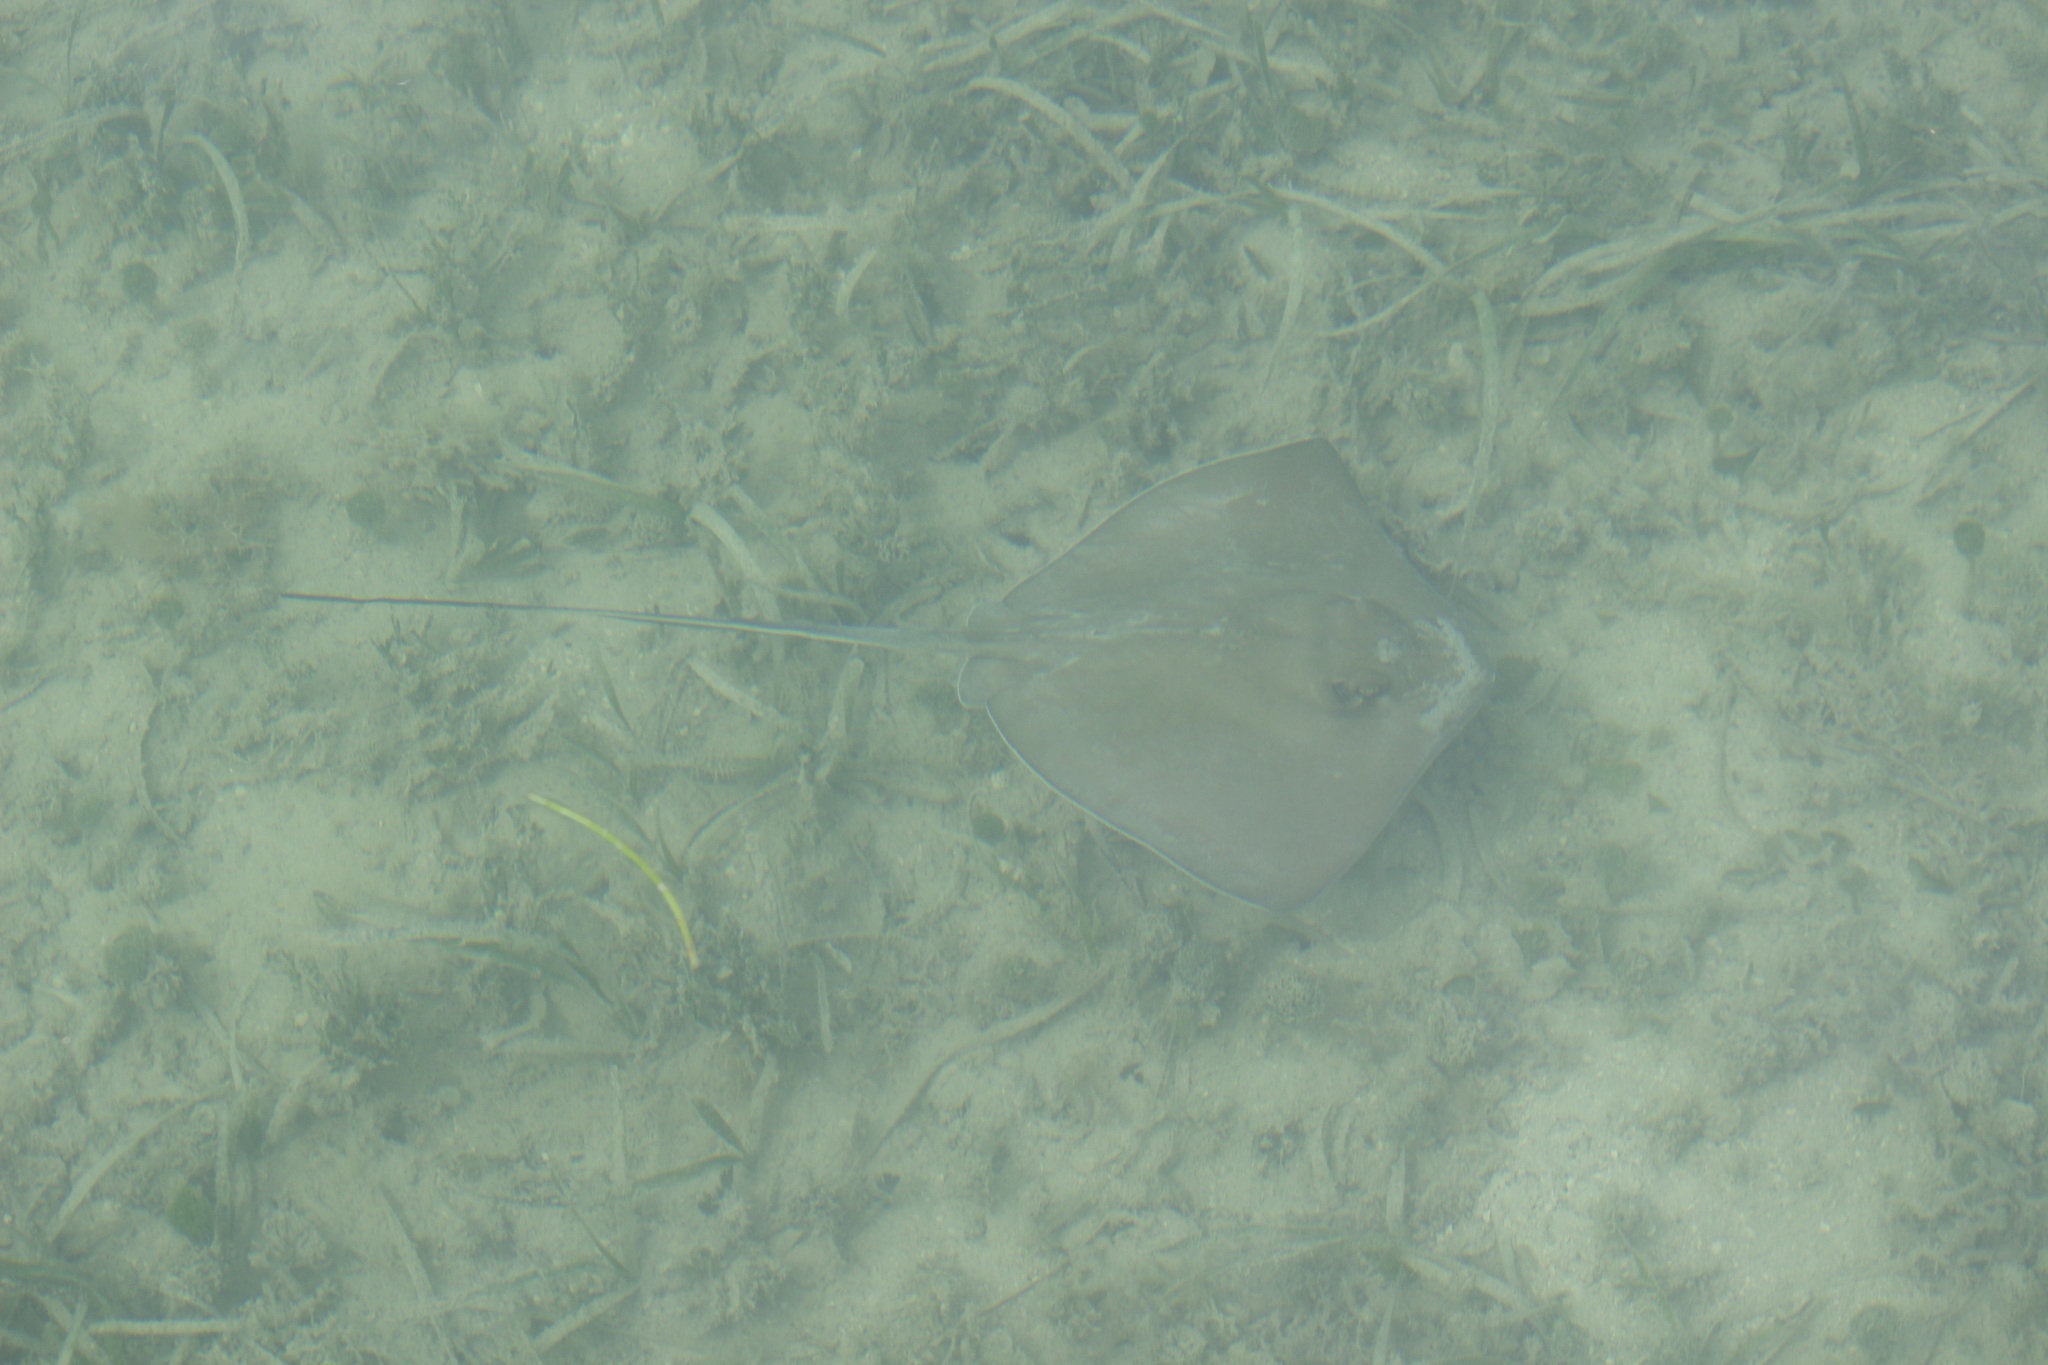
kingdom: Animalia
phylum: Chordata
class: Elasmobranchii
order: Myliobatiformes
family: Dasyatidae
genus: Hypanus
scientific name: Hypanus americanus
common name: Southern stingray
